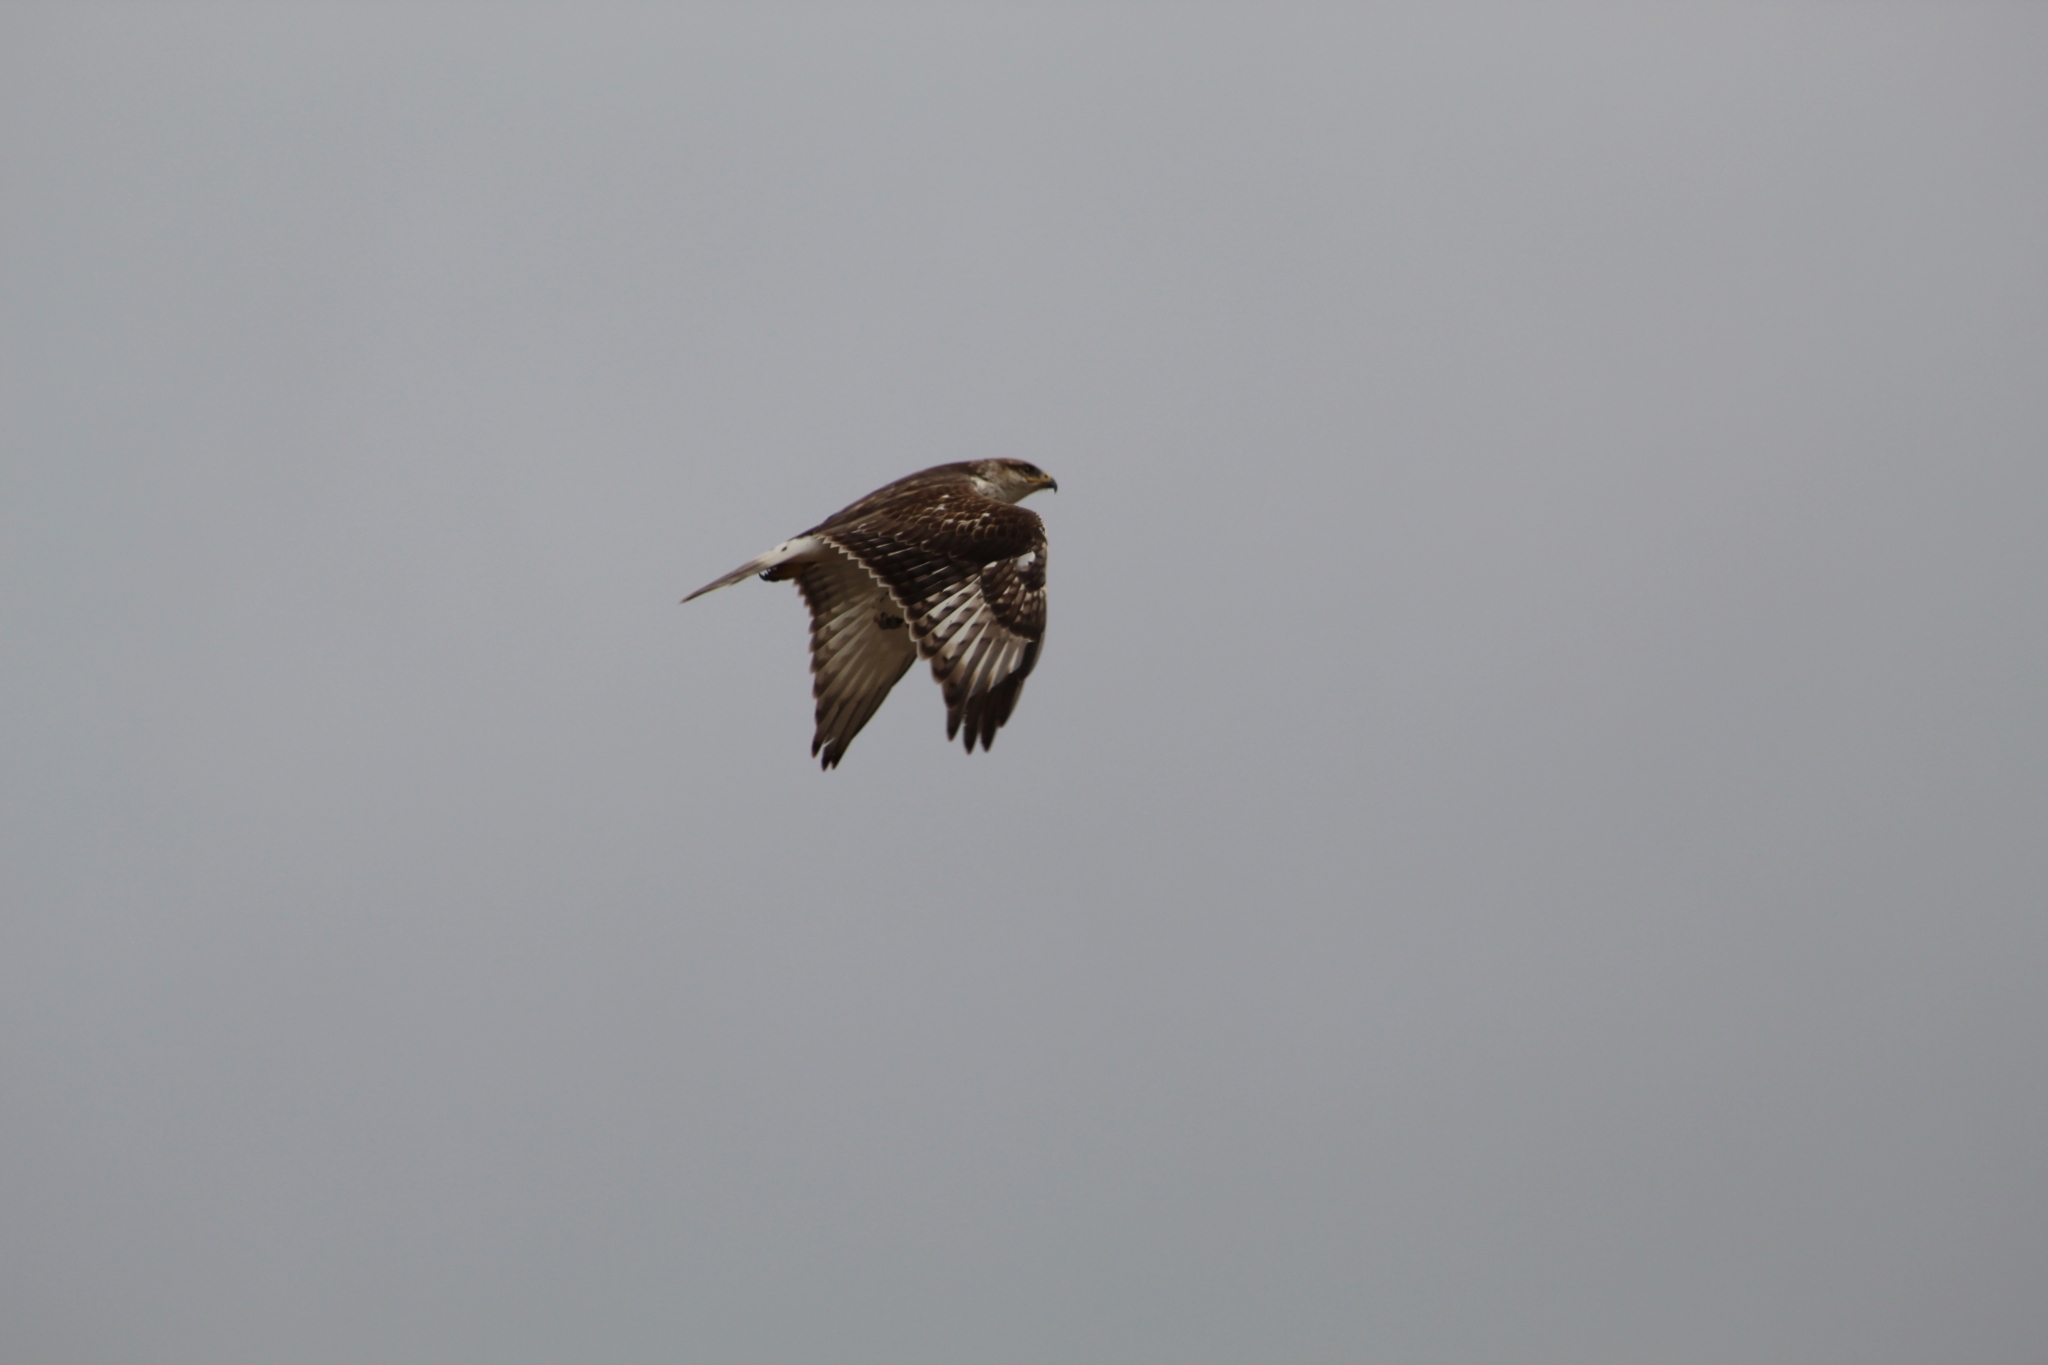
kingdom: Animalia
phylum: Chordata
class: Aves
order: Accipitriformes
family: Accipitridae
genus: Buteo
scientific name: Buteo regalis
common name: Ferruginous hawk
